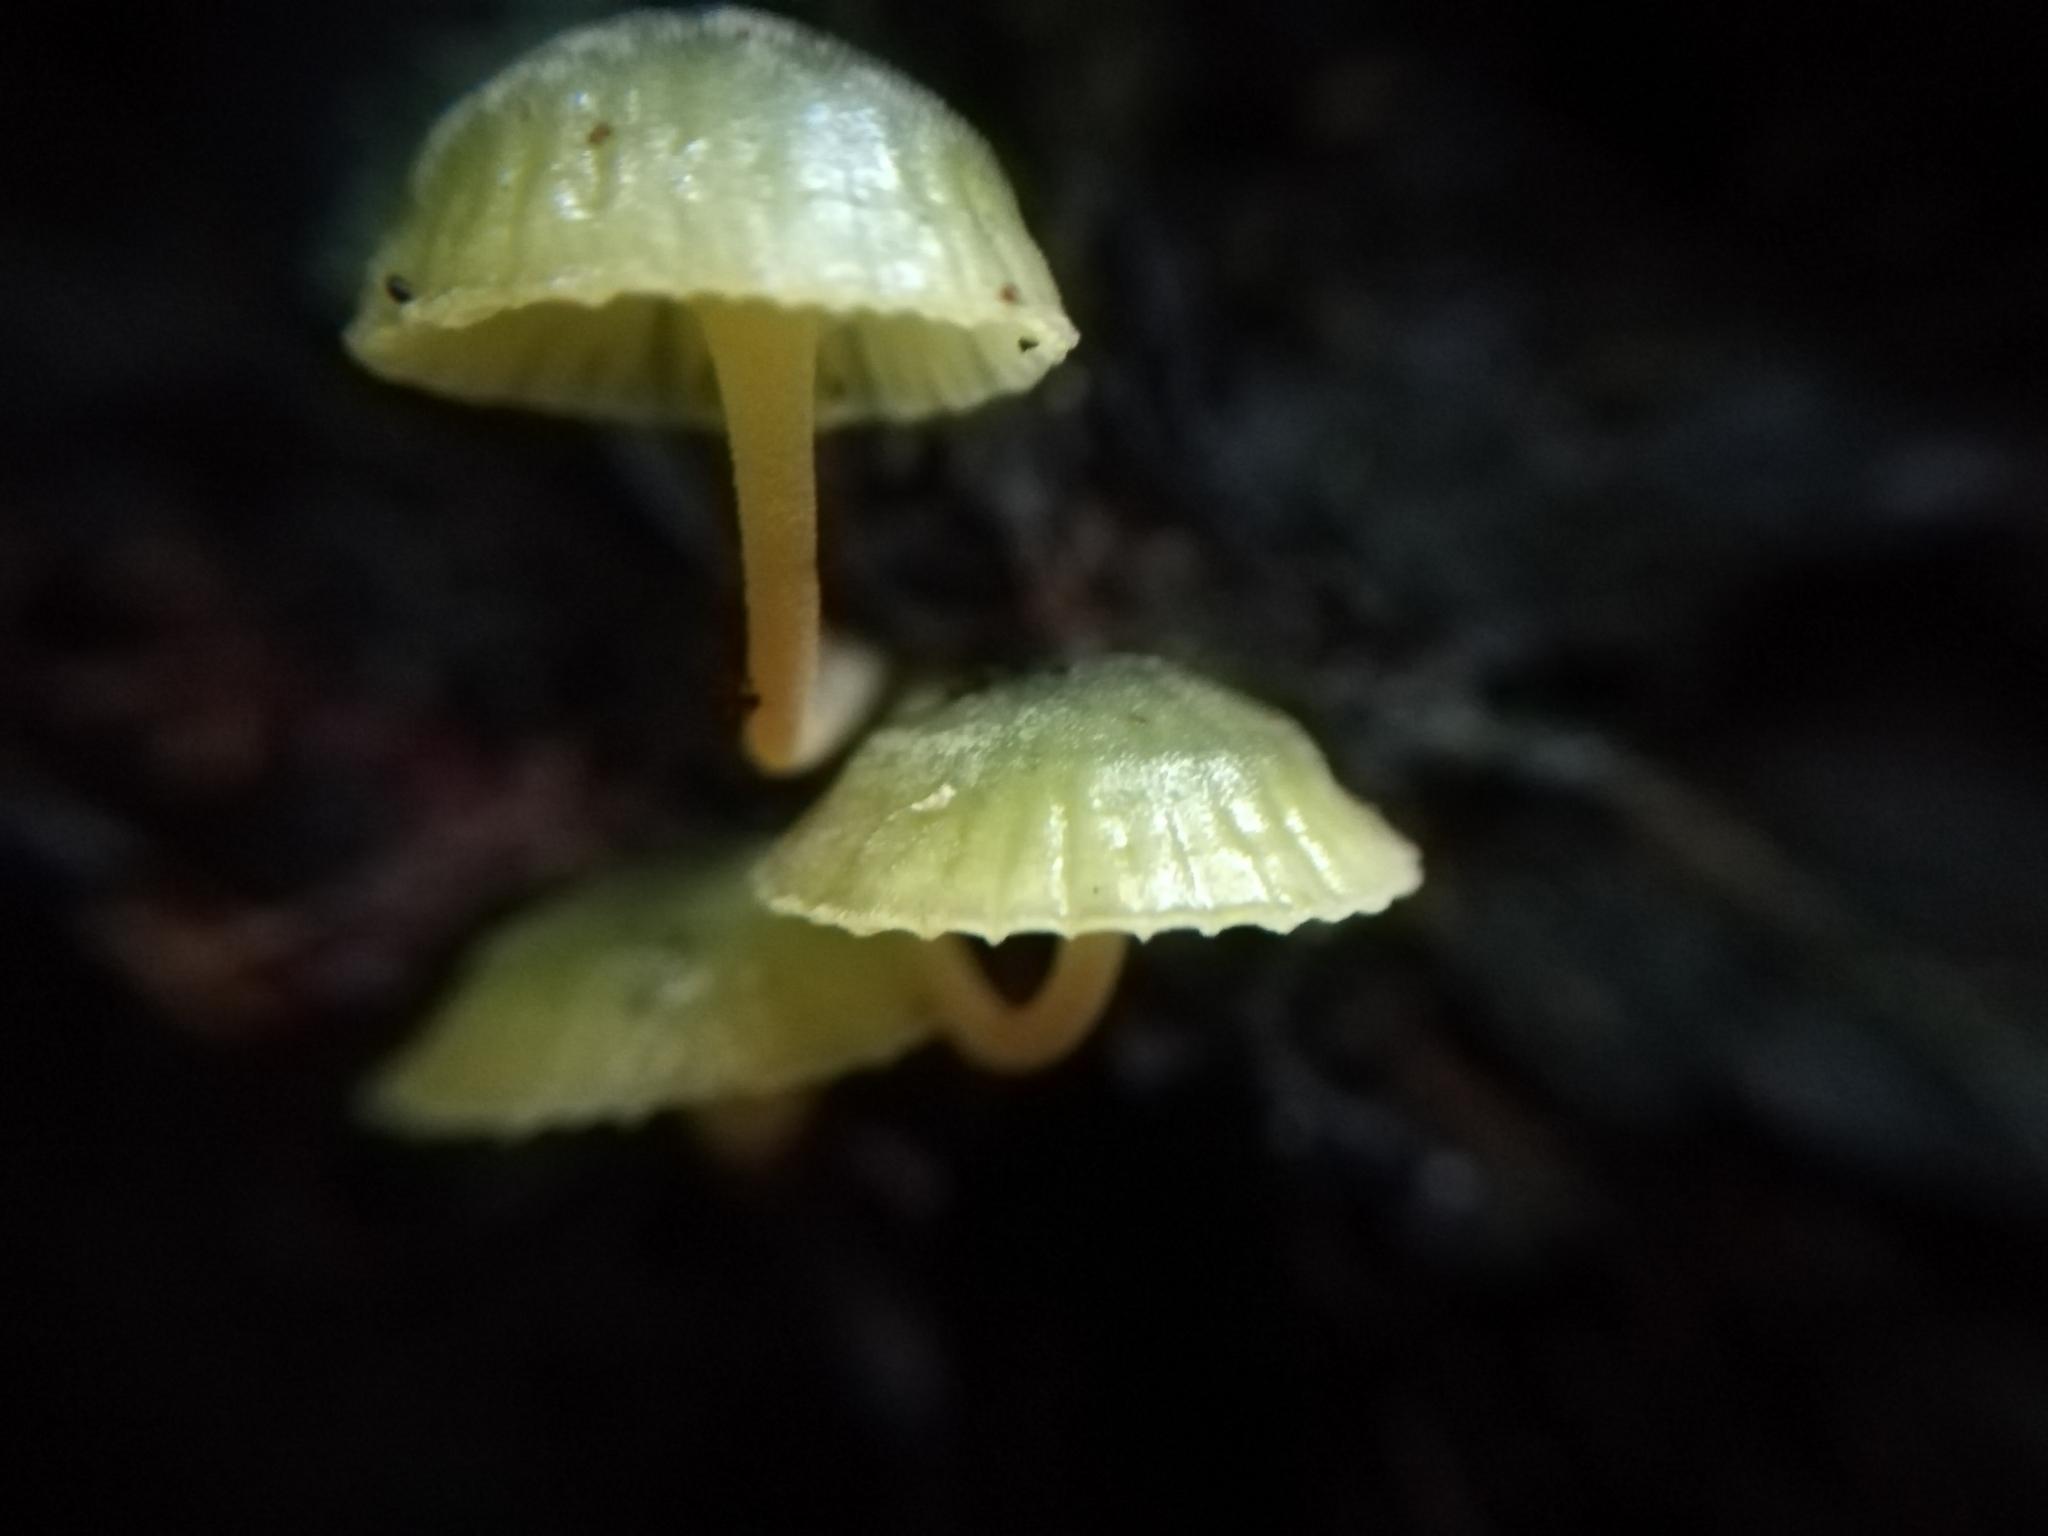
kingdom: Fungi
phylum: Basidiomycota
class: Agaricomycetes
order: Agaricales
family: Mycenaceae
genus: Insiticia
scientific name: Insiticia flavovirens
